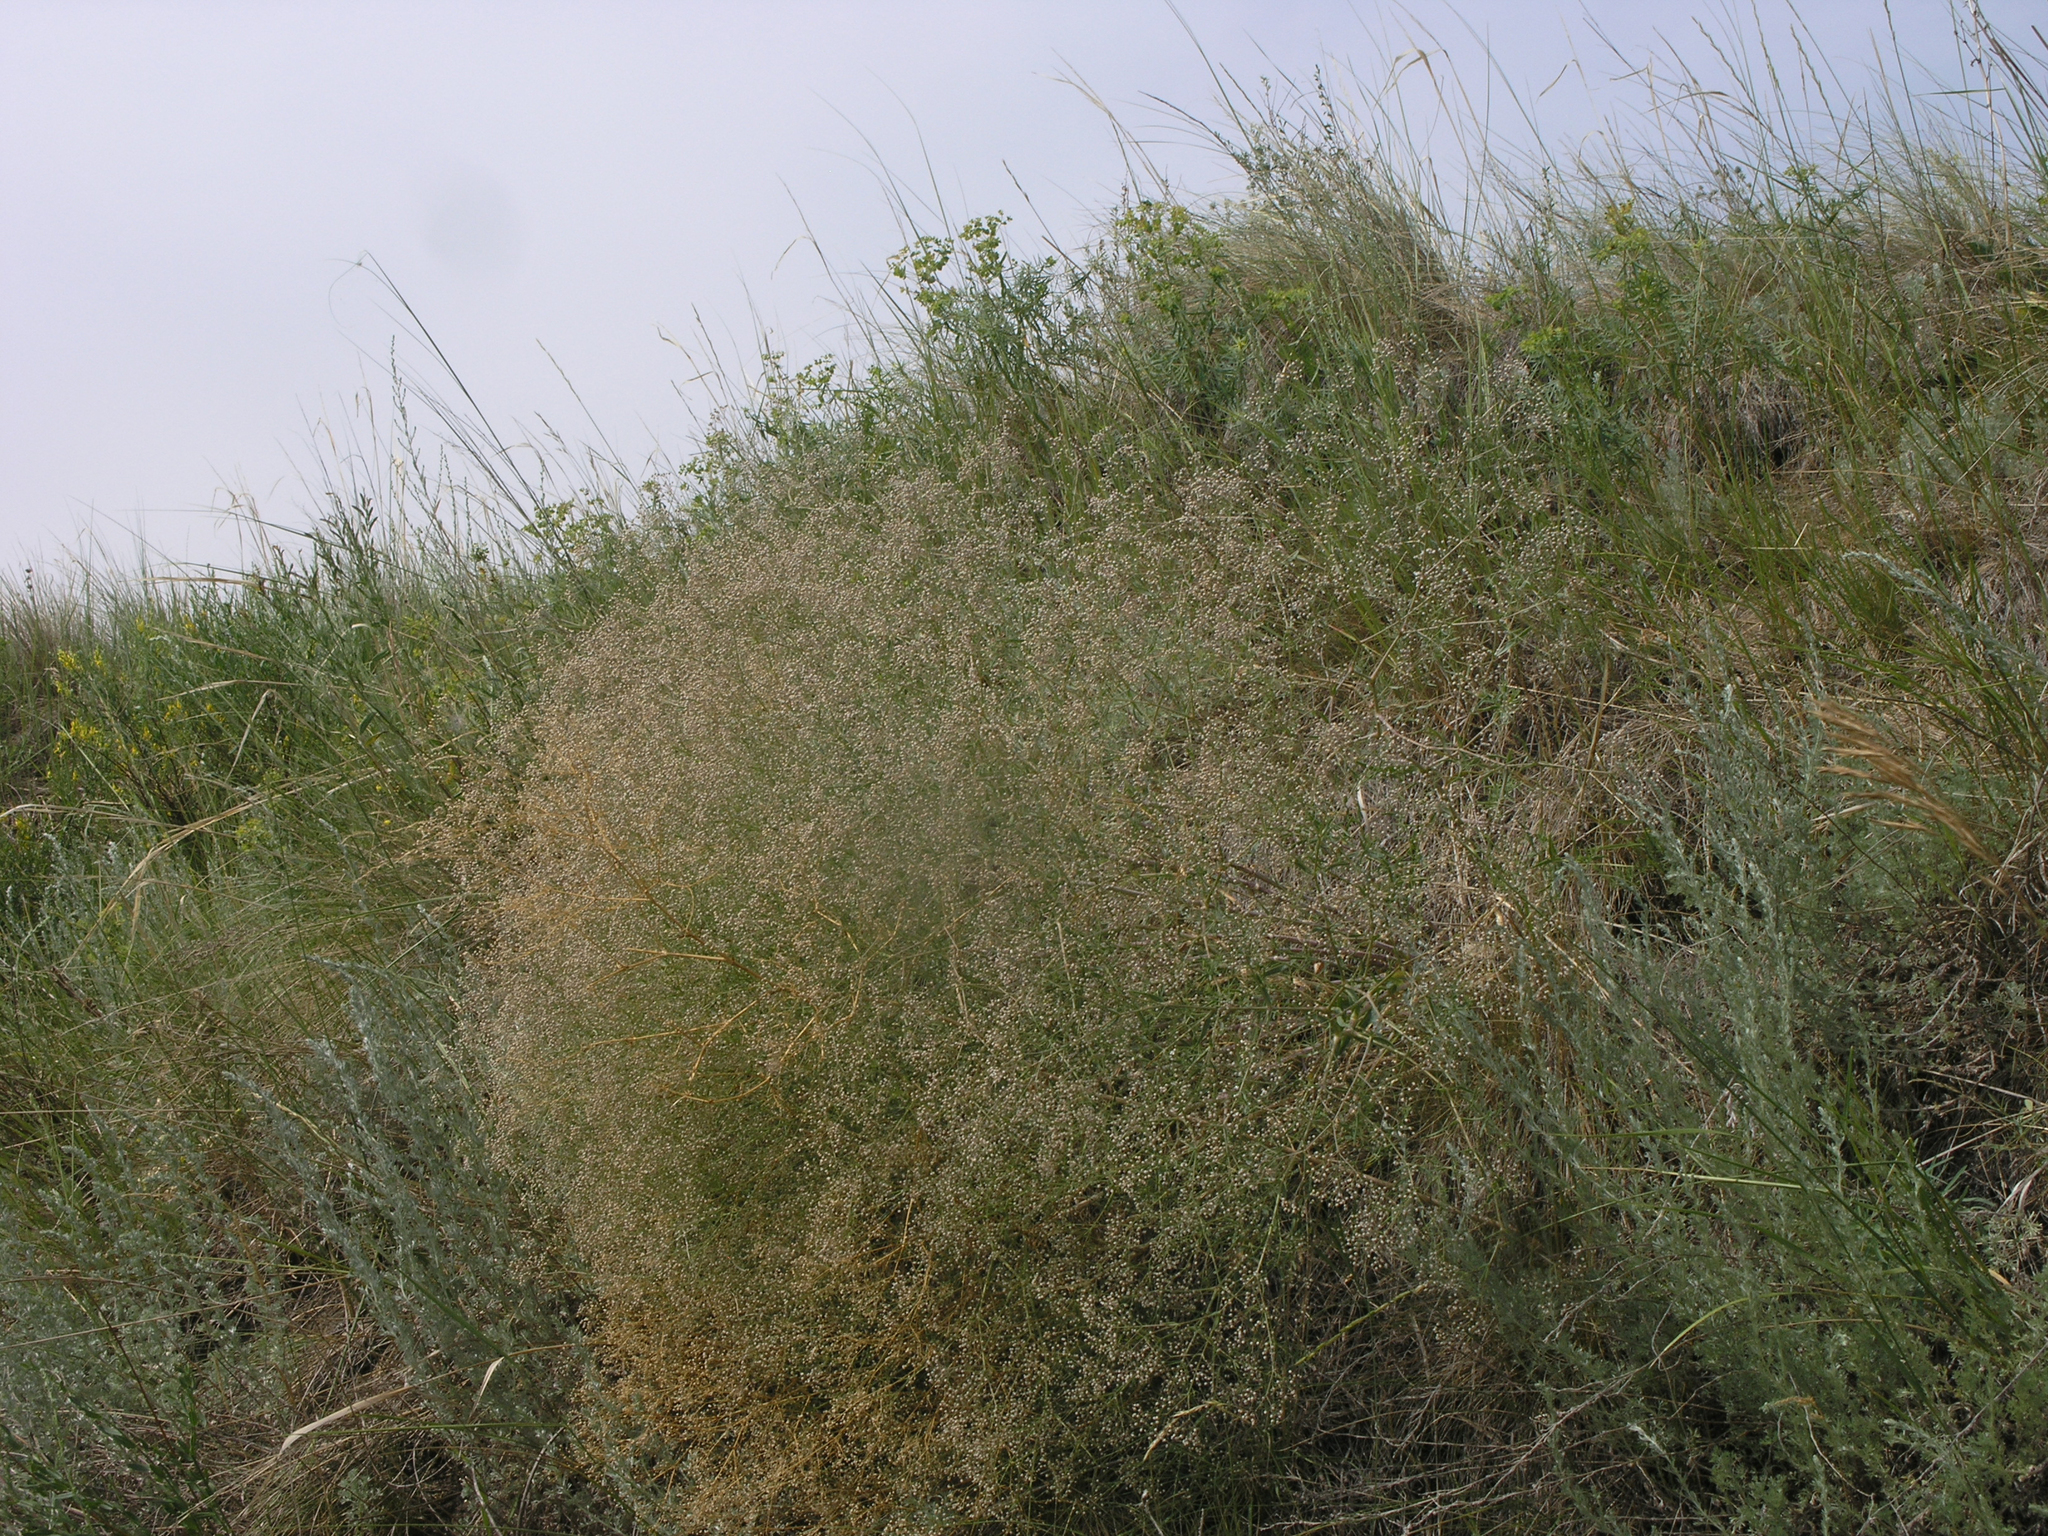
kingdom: Plantae
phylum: Tracheophyta
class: Magnoliopsida
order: Caryophyllales
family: Caryophyllaceae
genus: Gypsophila
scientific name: Gypsophila paniculata
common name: Baby's-breath
